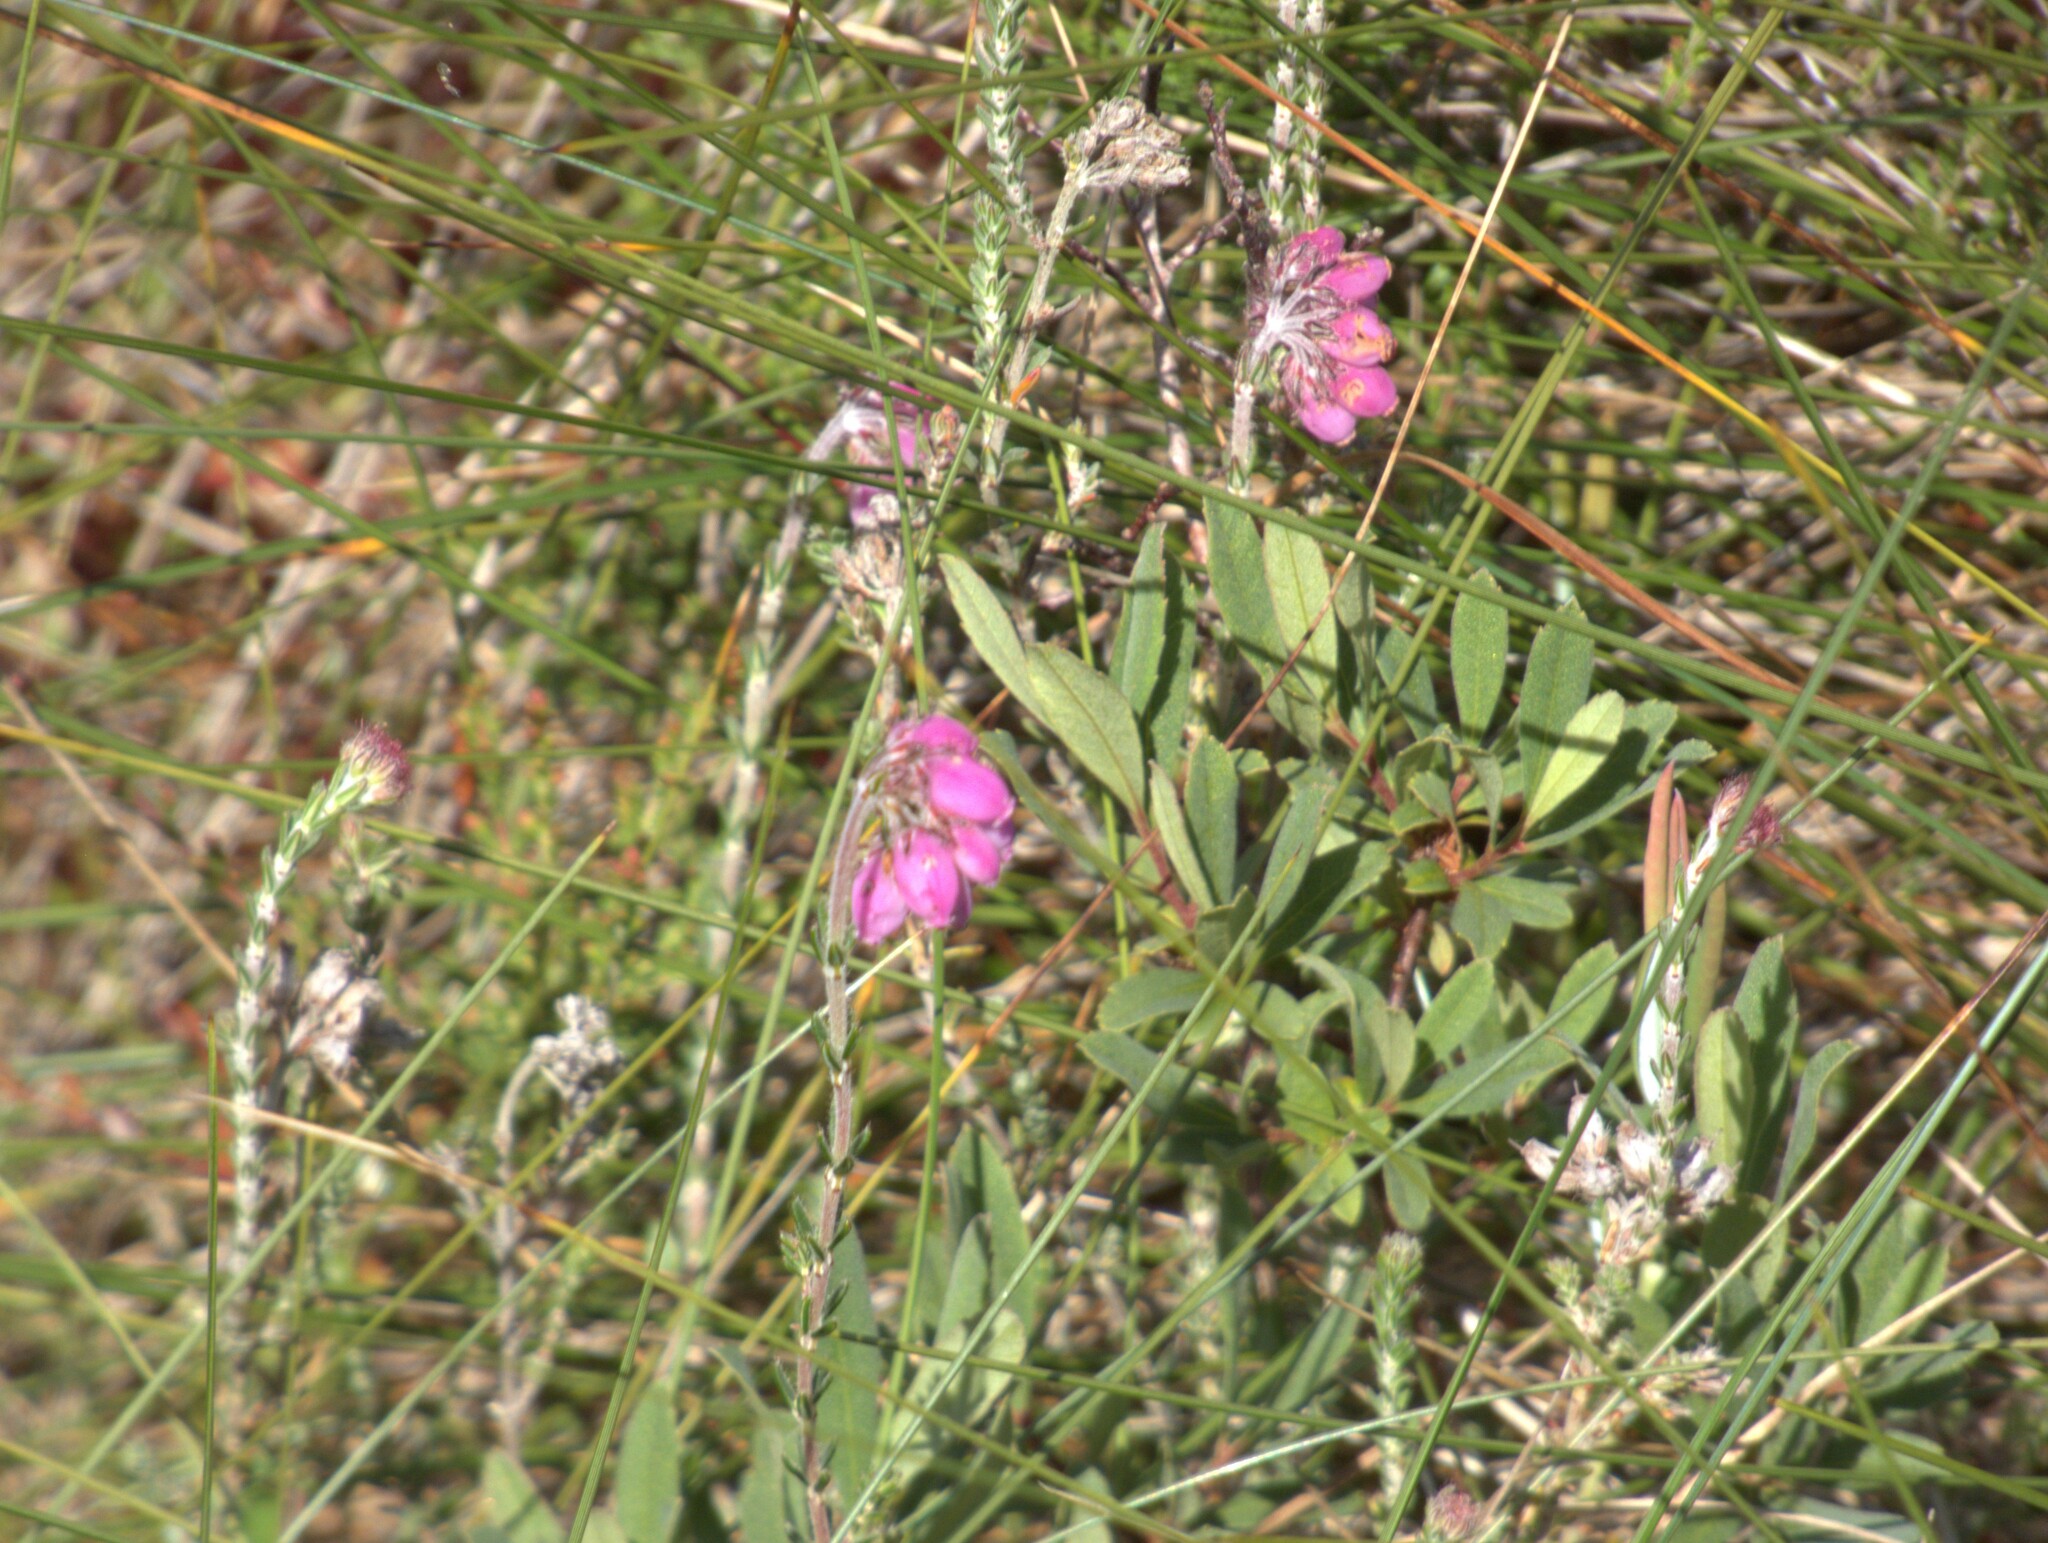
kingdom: Plantae
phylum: Tracheophyta
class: Magnoliopsida
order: Ericales
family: Ericaceae
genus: Erica
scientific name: Erica tetralix
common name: Cross-leaved heath
